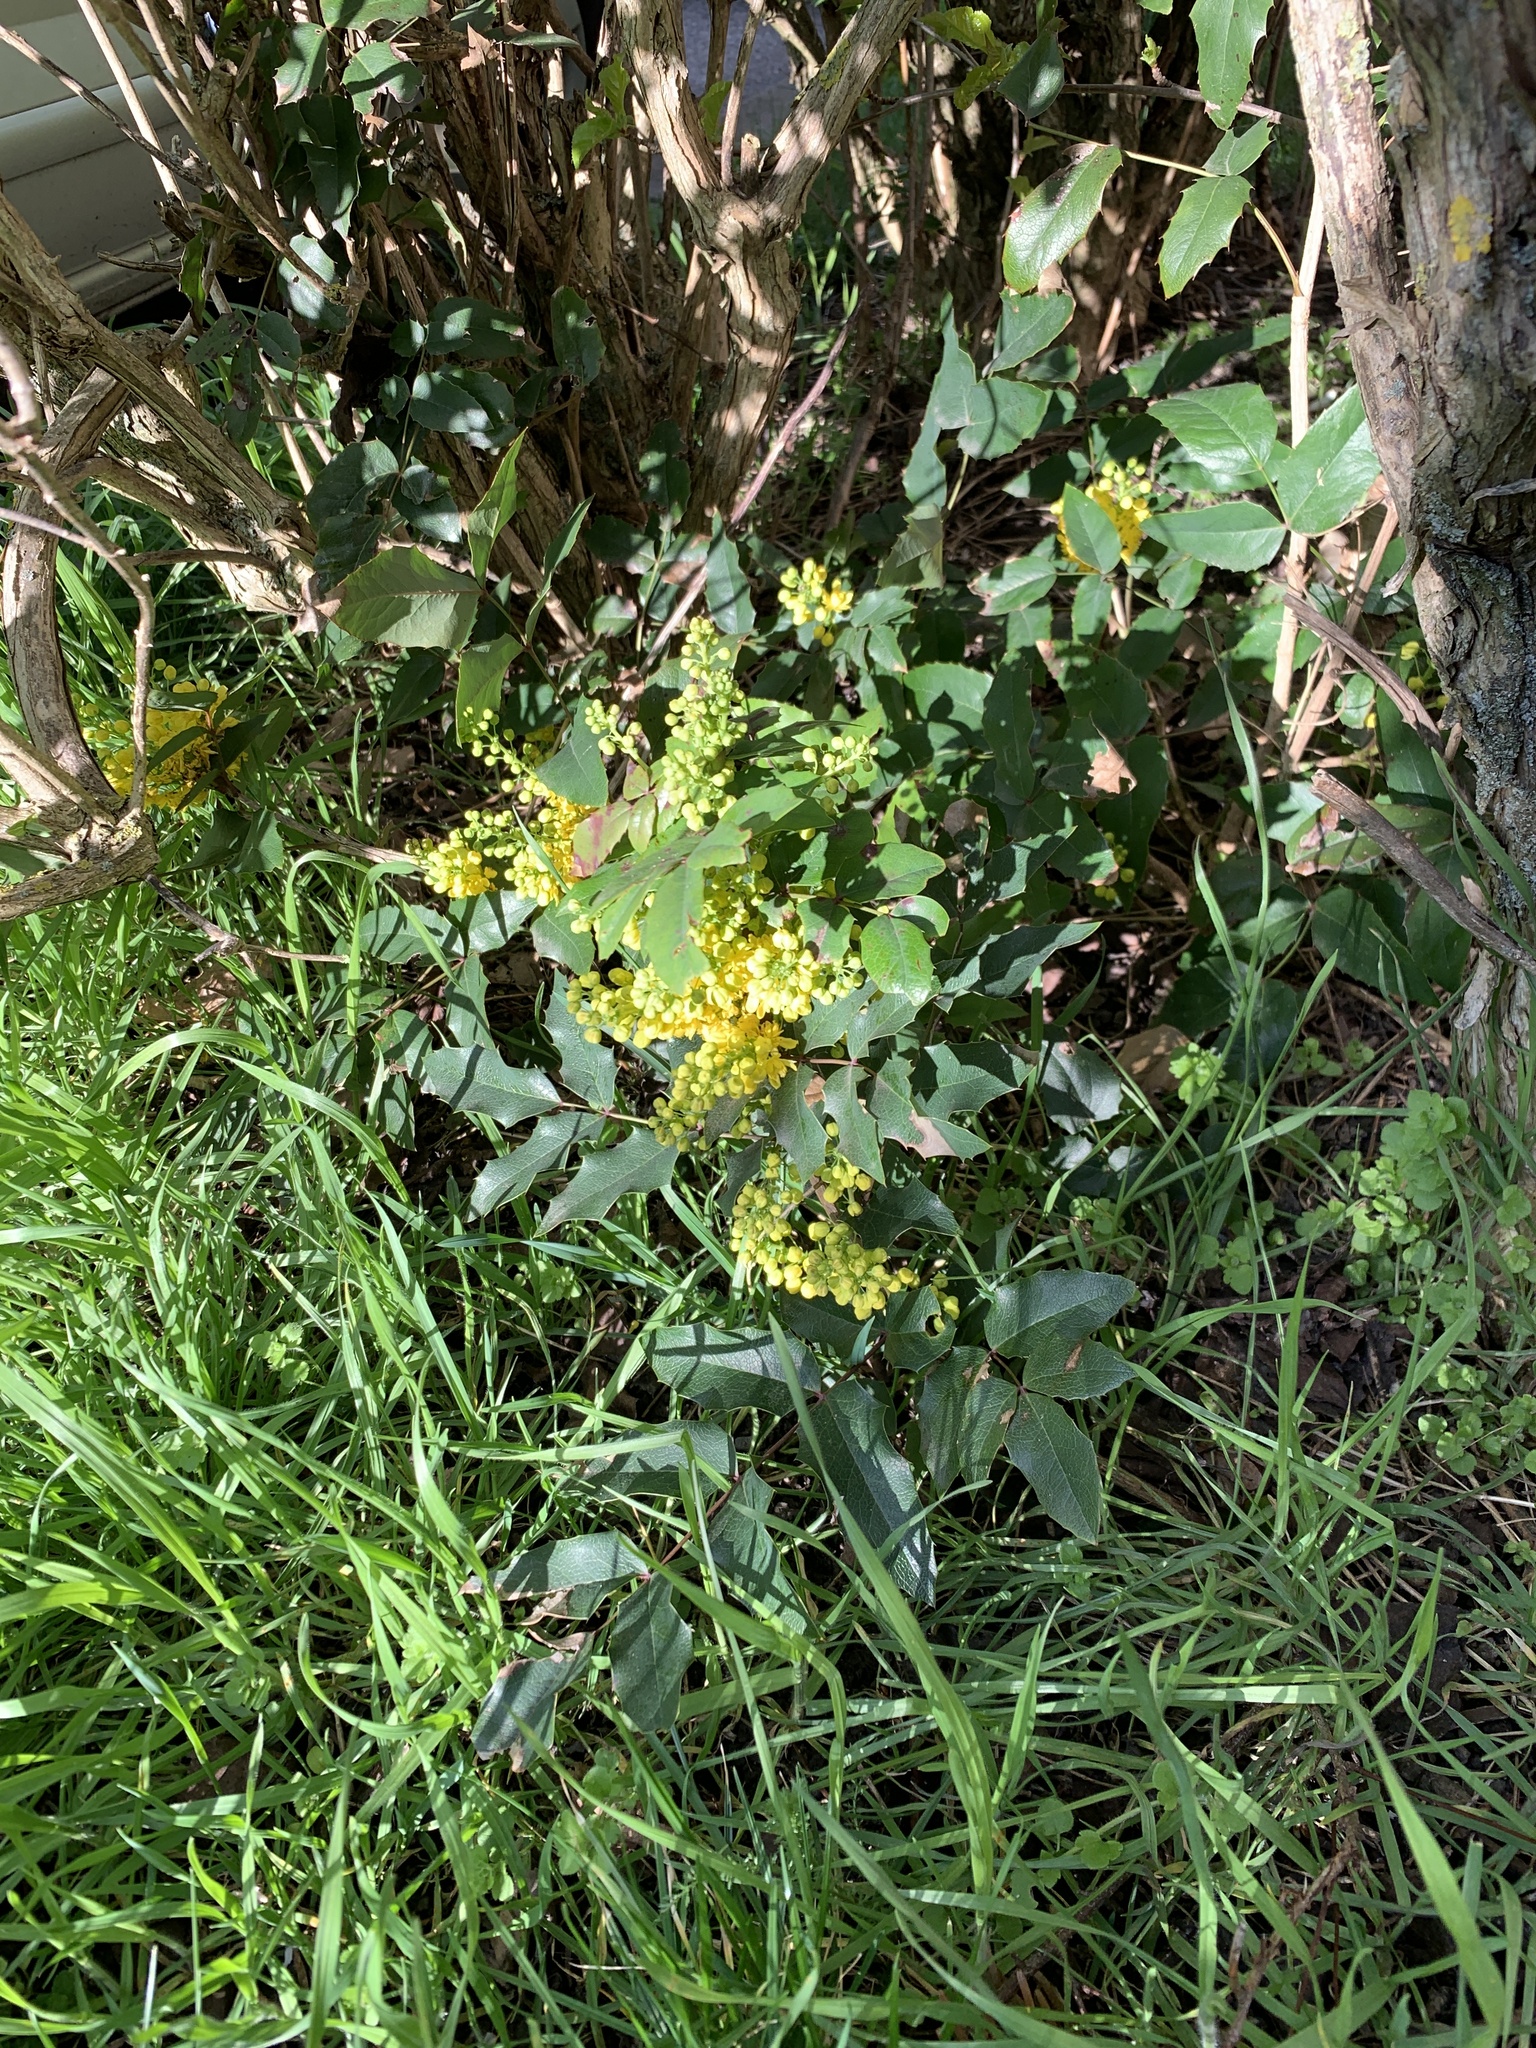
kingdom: Plantae
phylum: Tracheophyta
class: Magnoliopsida
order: Ranunculales
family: Berberidaceae
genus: Mahonia
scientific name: Mahonia aquifolium
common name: Oregon-grape
